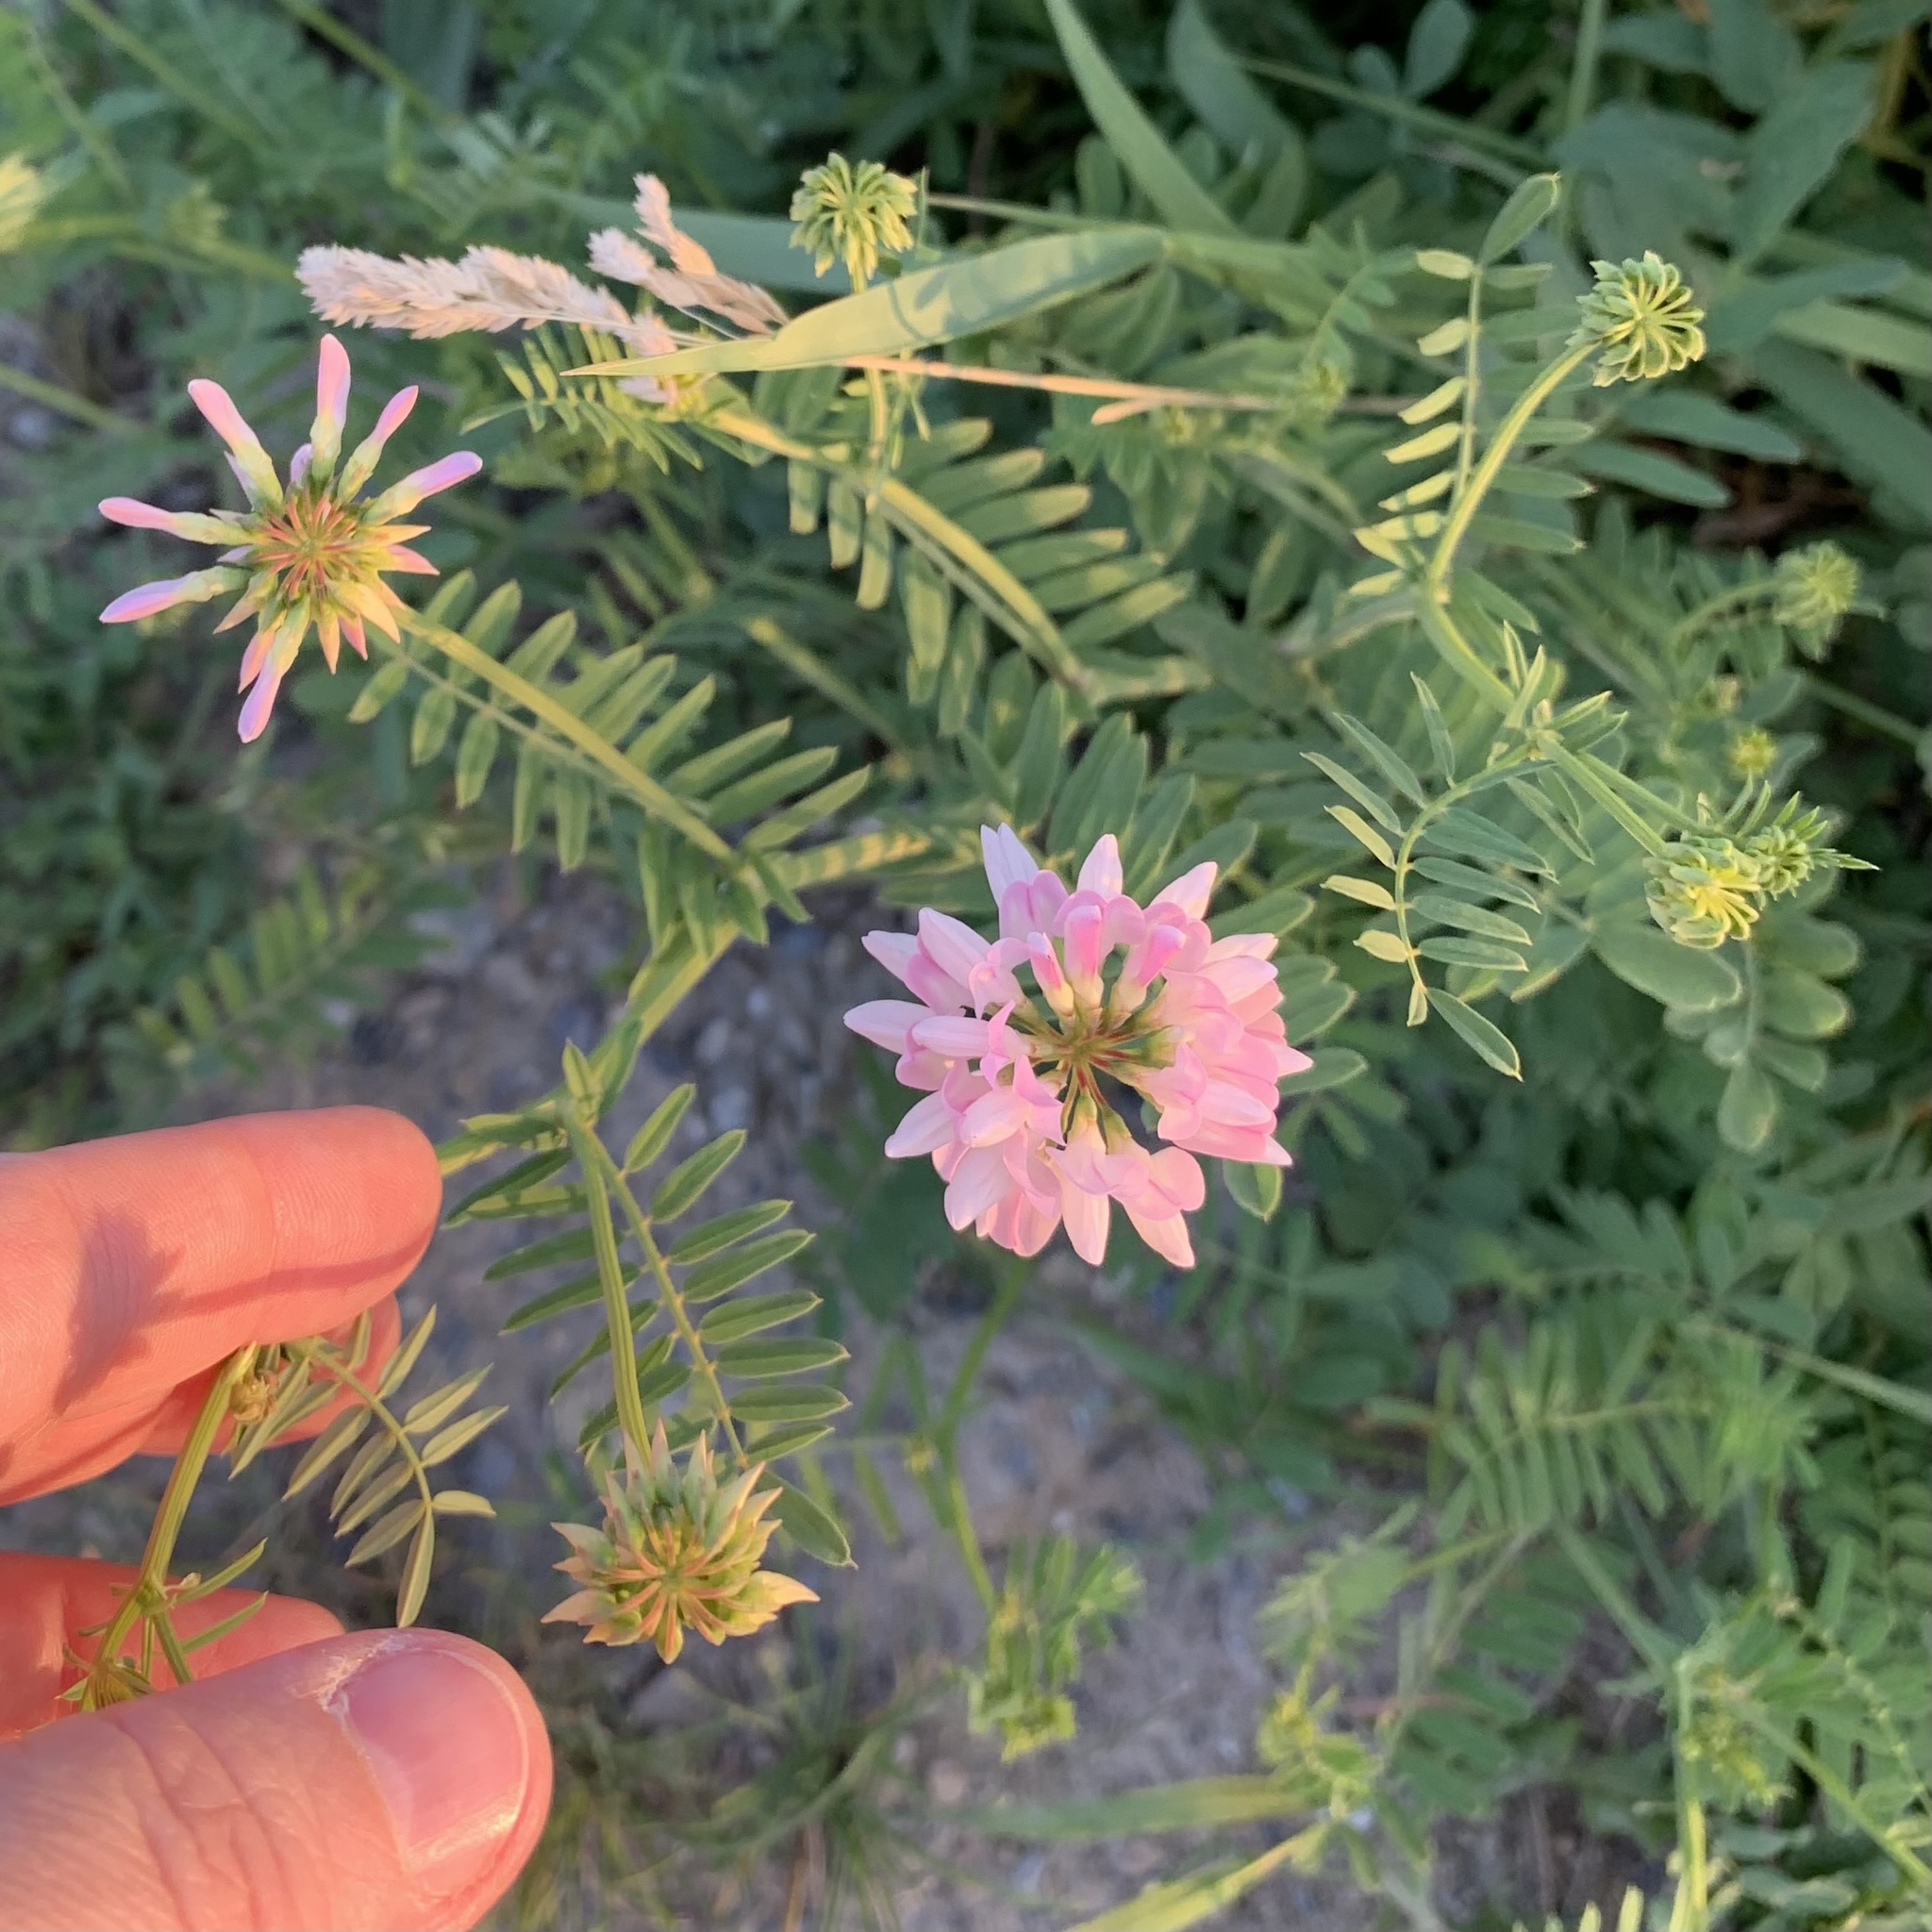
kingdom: Plantae
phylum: Tracheophyta
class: Magnoliopsida
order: Fabales
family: Fabaceae
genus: Coronilla
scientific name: Coronilla varia
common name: Crownvetch
